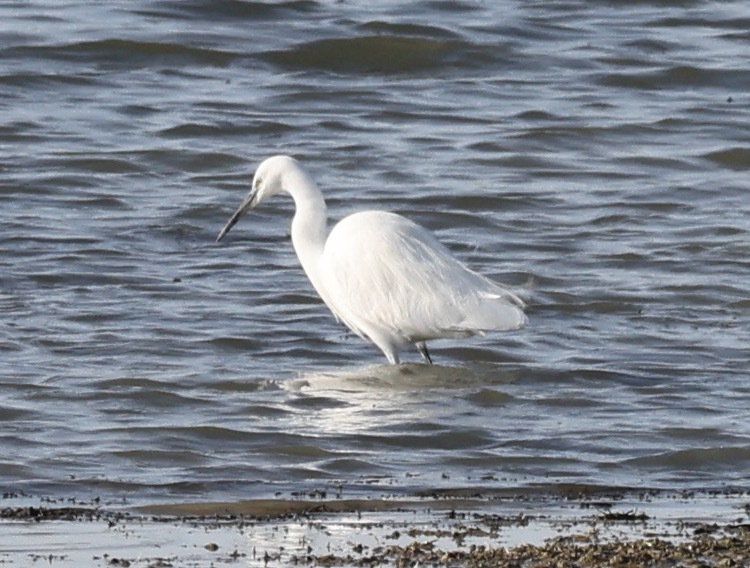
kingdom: Animalia
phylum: Chordata
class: Aves
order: Pelecaniformes
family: Ardeidae
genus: Egretta
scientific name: Egretta garzetta
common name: Little egret
